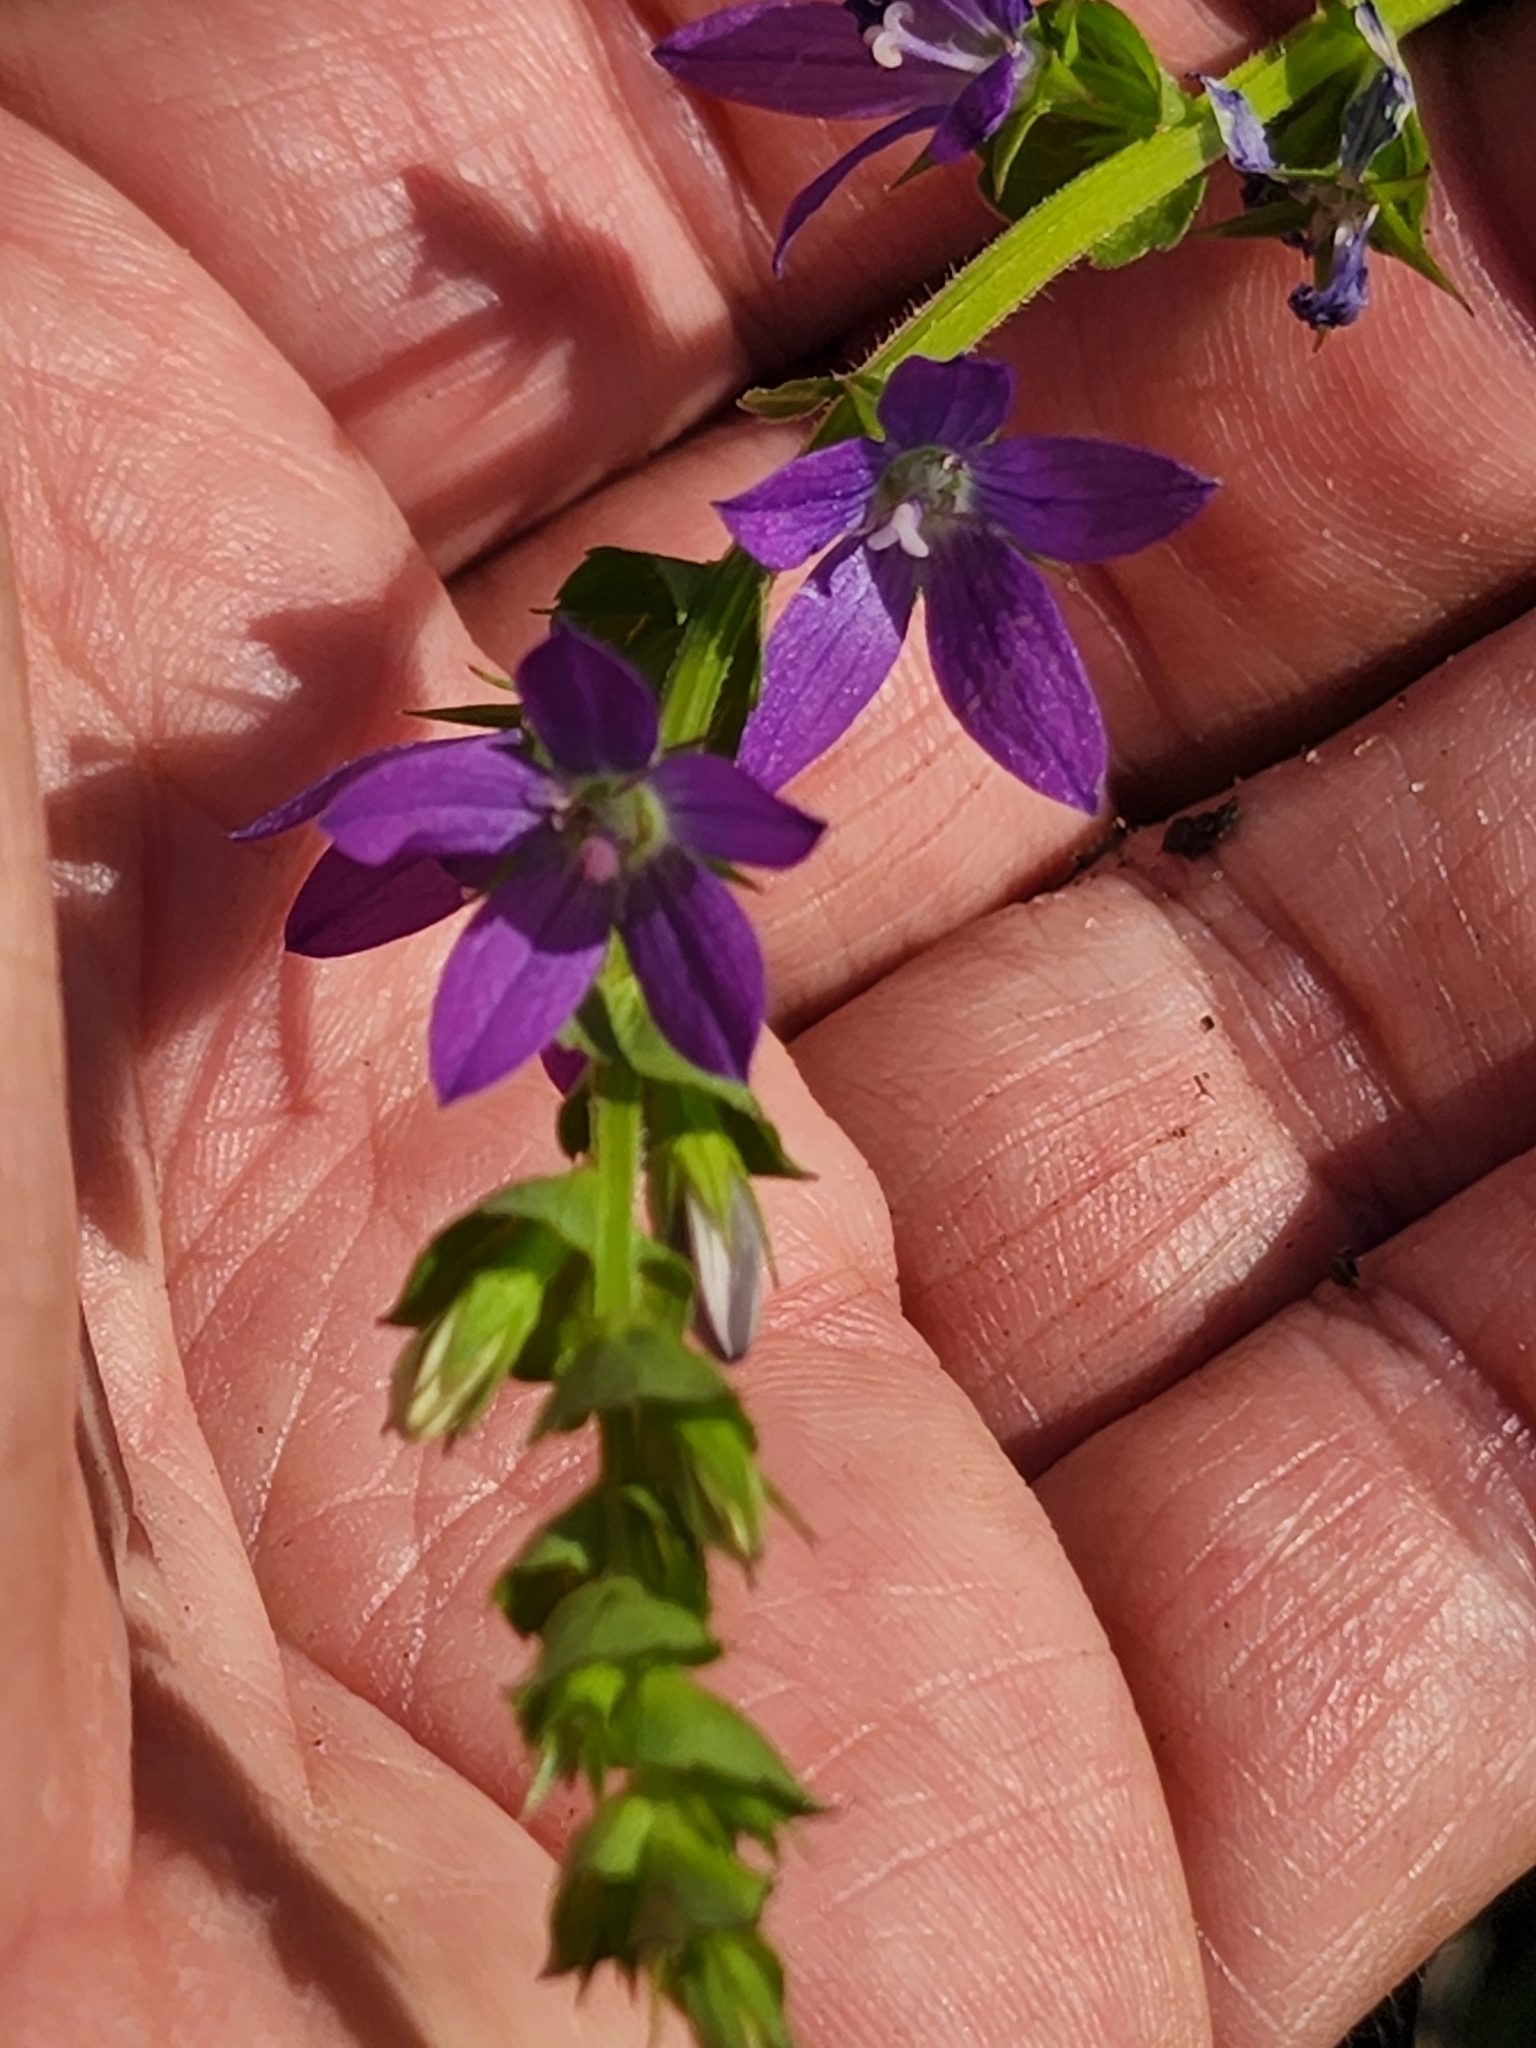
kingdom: Plantae
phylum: Tracheophyta
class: Magnoliopsida
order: Asterales
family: Campanulaceae
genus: Triodanis
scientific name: Triodanis perfoliata
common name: Clasping venus' looking-glass
